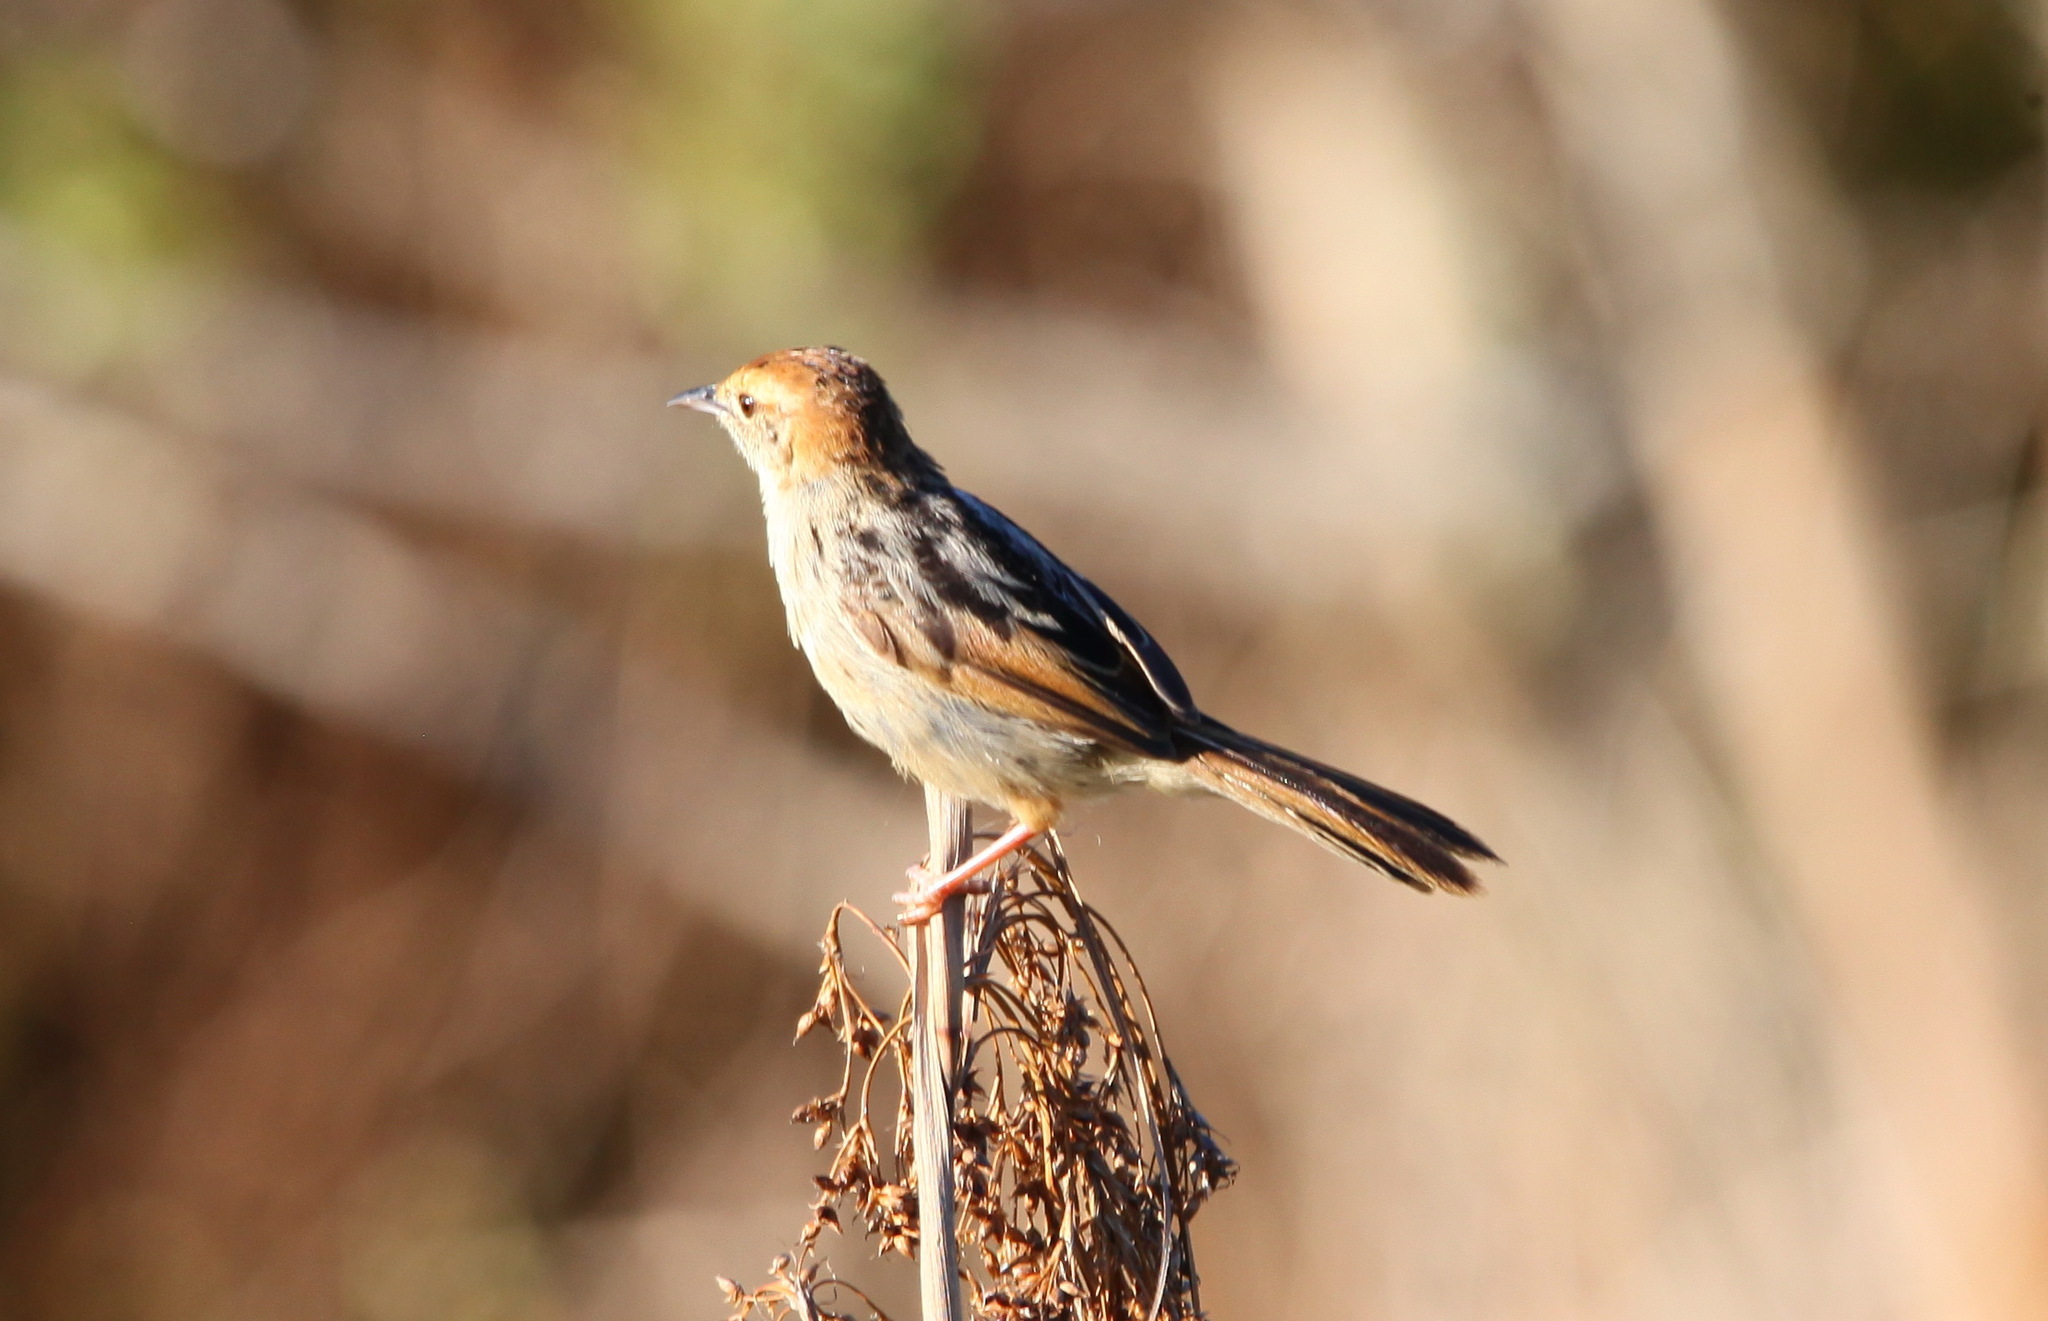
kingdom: Animalia
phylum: Chordata
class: Aves
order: Passeriformes
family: Cisticolidae
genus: Cisticola
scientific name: Cisticola tinniens
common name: Levaillant's cisticola
